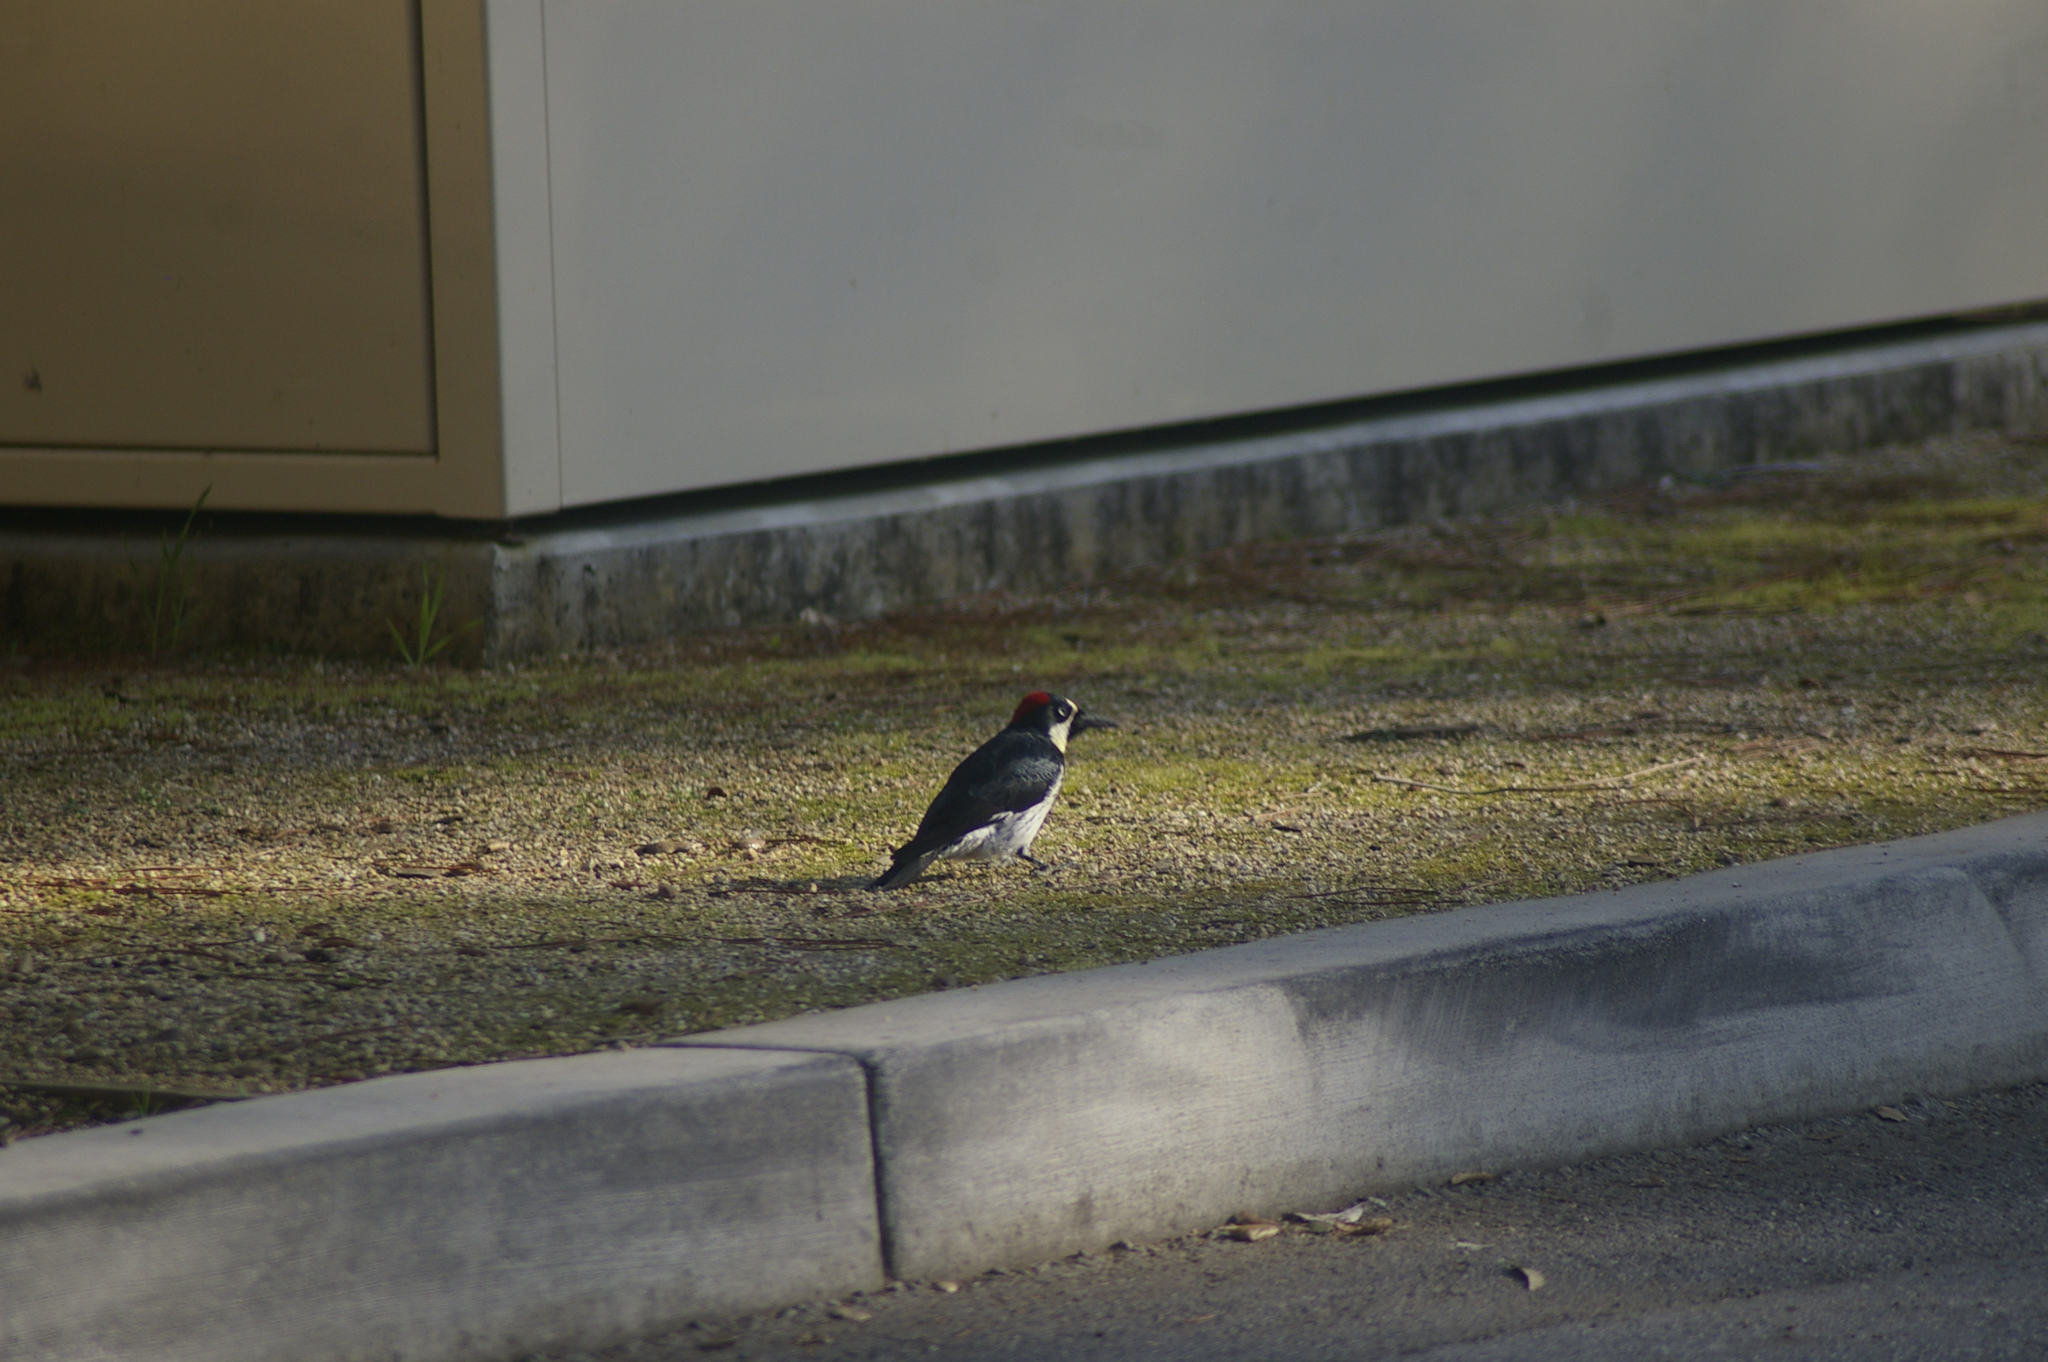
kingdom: Animalia
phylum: Chordata
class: Aves
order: Piciformes
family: Picidae
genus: Melanerpes
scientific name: Melanerpes formicivorus
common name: Acorn woodpecker
